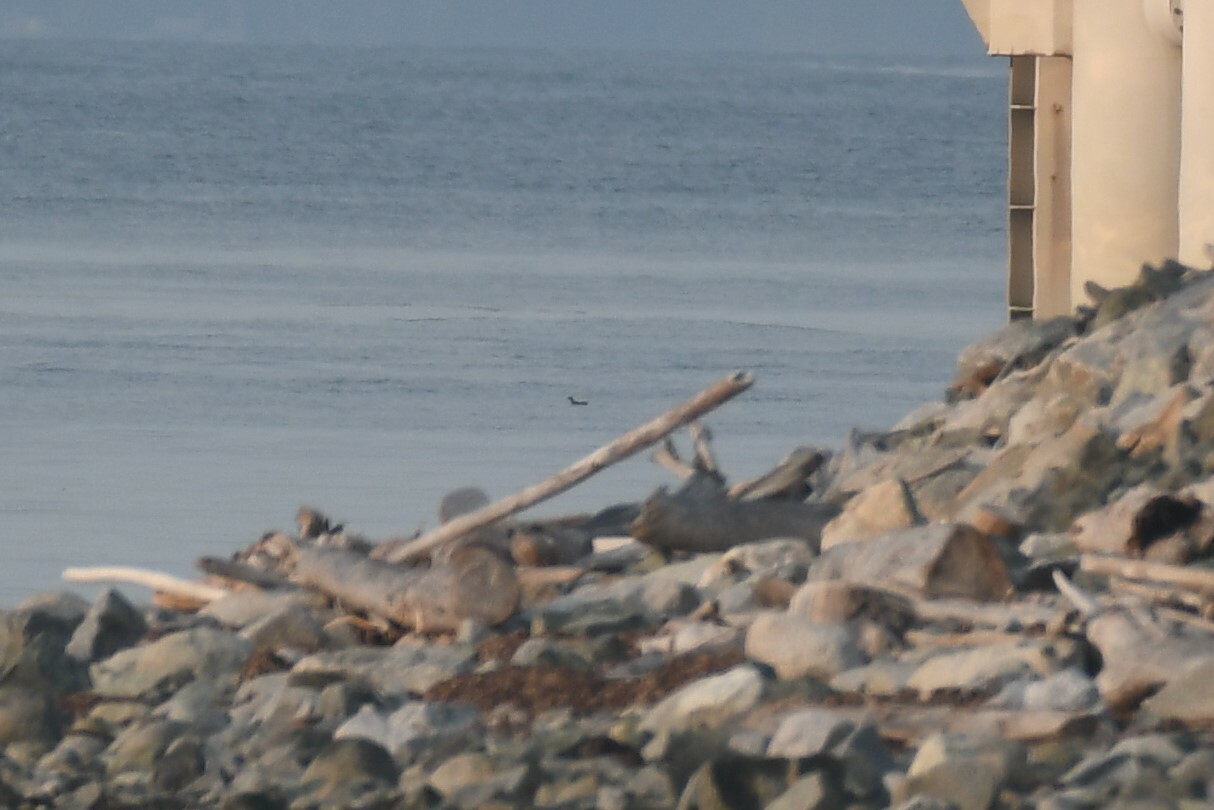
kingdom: Animalia
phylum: Chordata
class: Aves
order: Charadriiformes
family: Alcidae
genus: Cepphus
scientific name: Cepphus columba
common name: Pigeon guillemot
